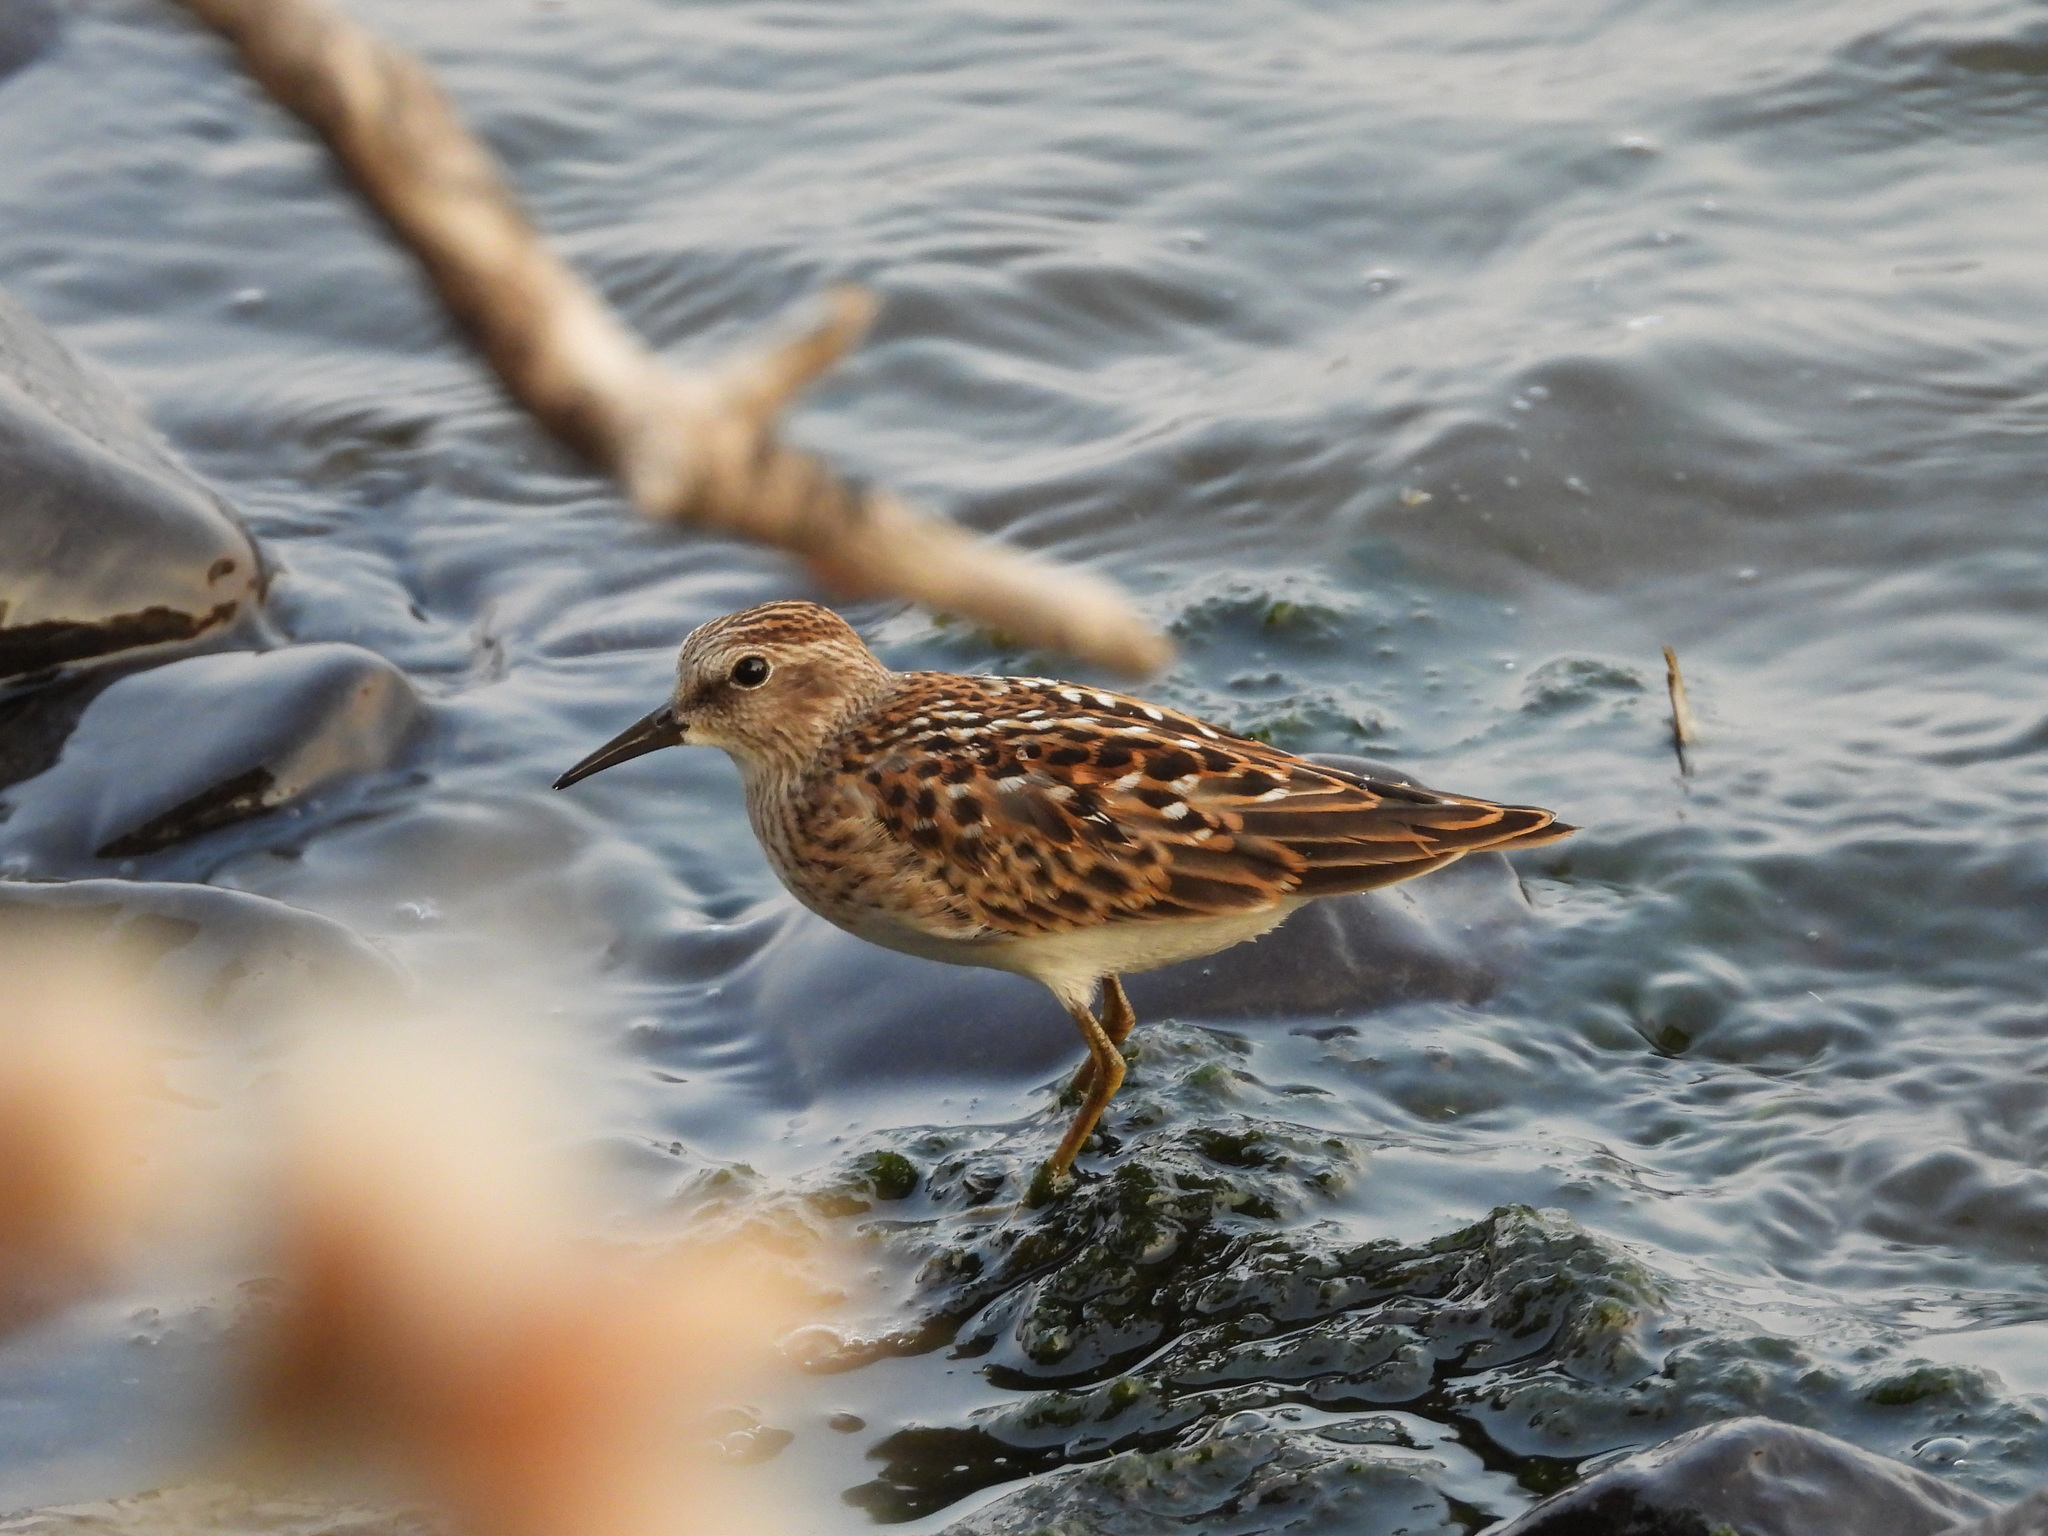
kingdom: Animalia
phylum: Chordata
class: Aves
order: Charadriiformes
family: Scolopacidae
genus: Calidris
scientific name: Calidris minutilla
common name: Least sandpiper
